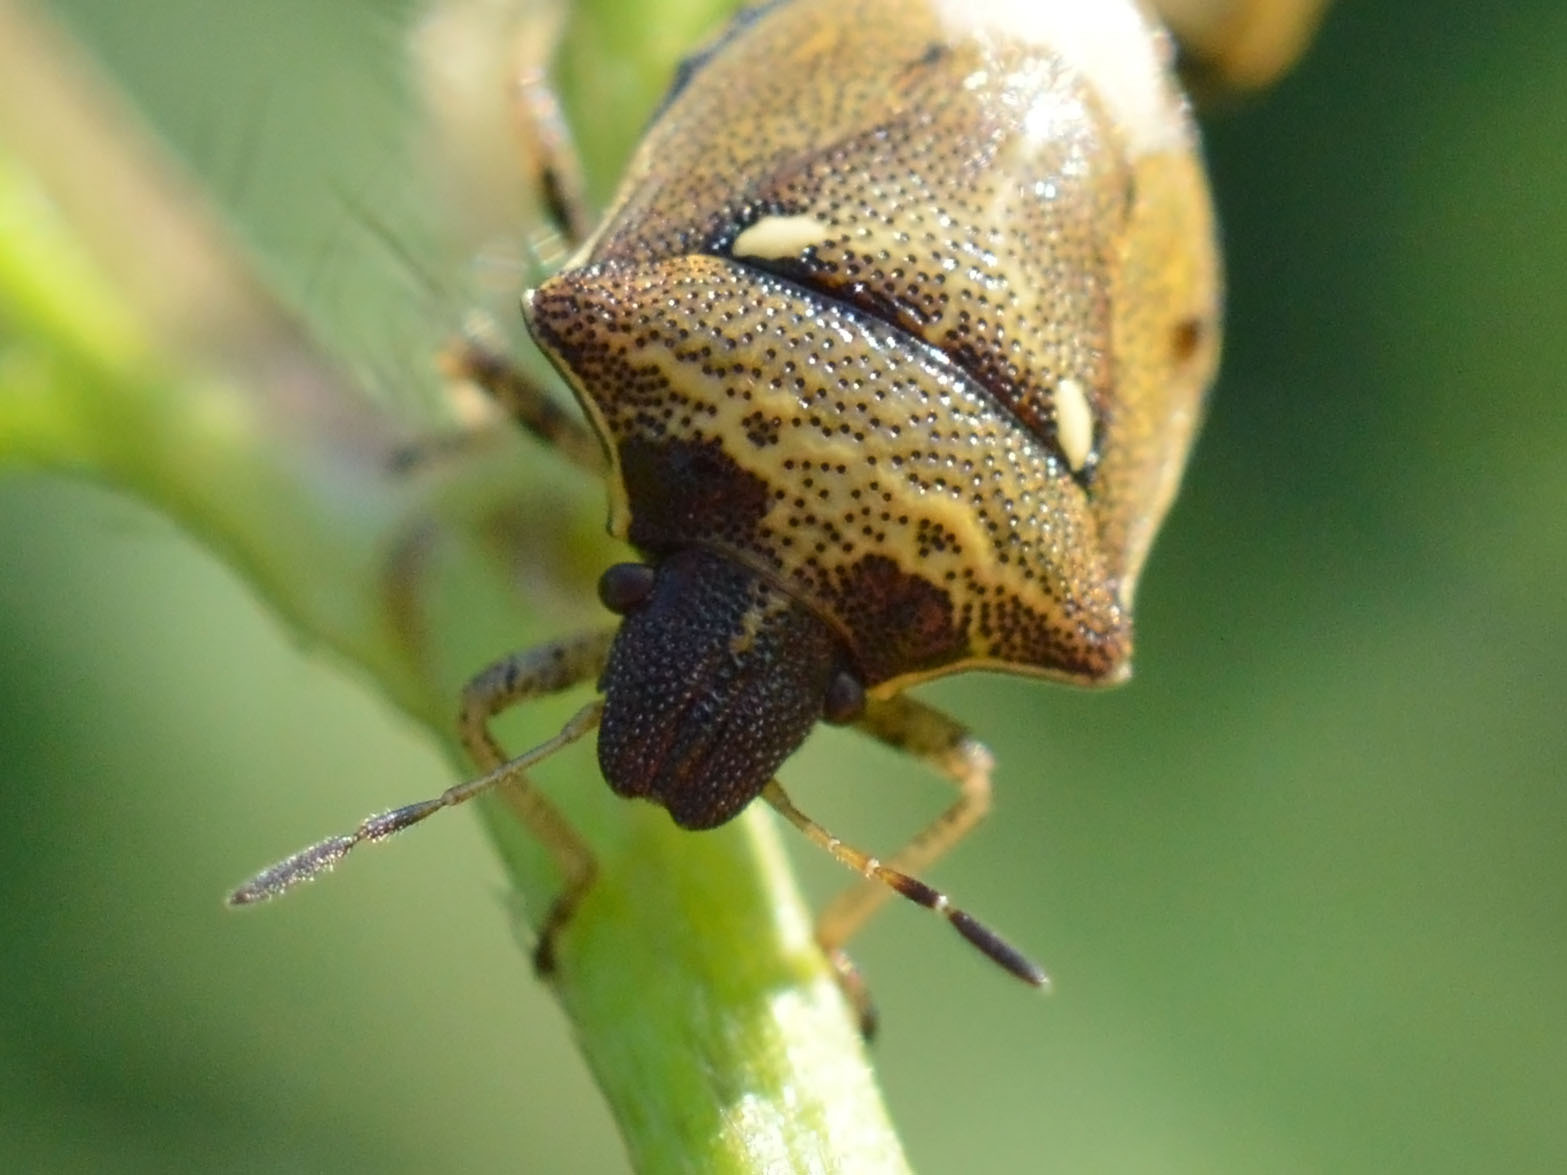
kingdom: Animalia
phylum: Arthropoda
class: Insecta
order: Hemiptera
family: Pentatomidae
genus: Eysarcoris
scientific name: Eysarcoris aeneus
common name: New forest shieldbug
